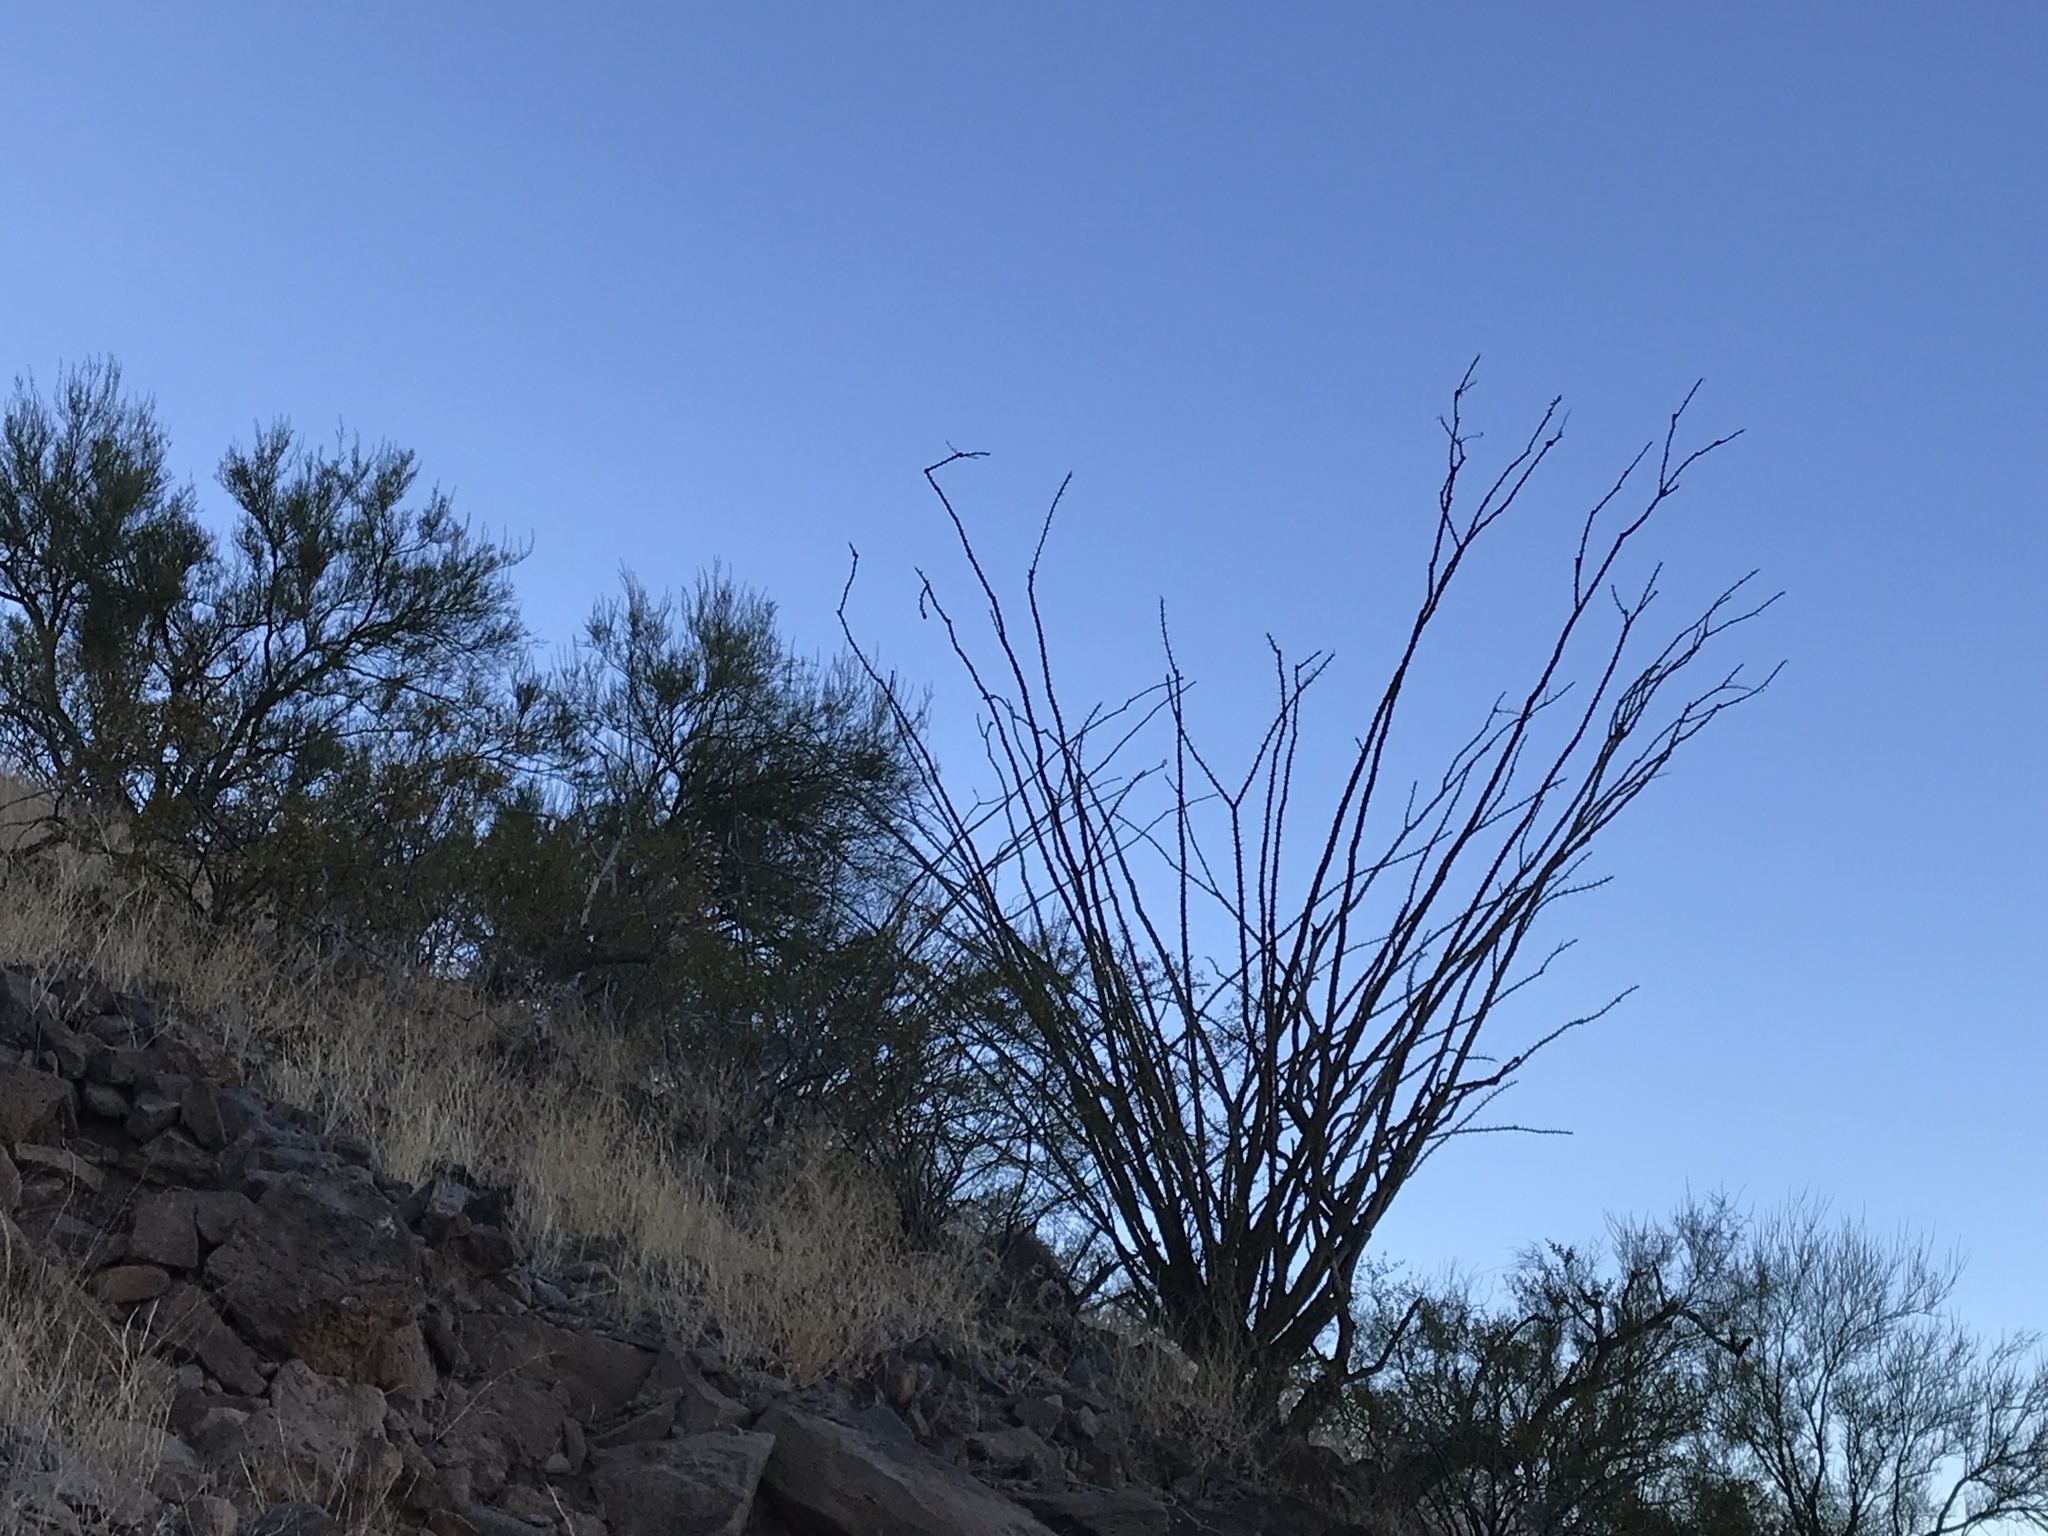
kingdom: Plantae
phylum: Tracheophyta
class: Magnoliopsida
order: Ericales
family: Fouquieriaceae
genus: Fouquieria
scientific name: Fouquieria splendens
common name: Vine-cactus
